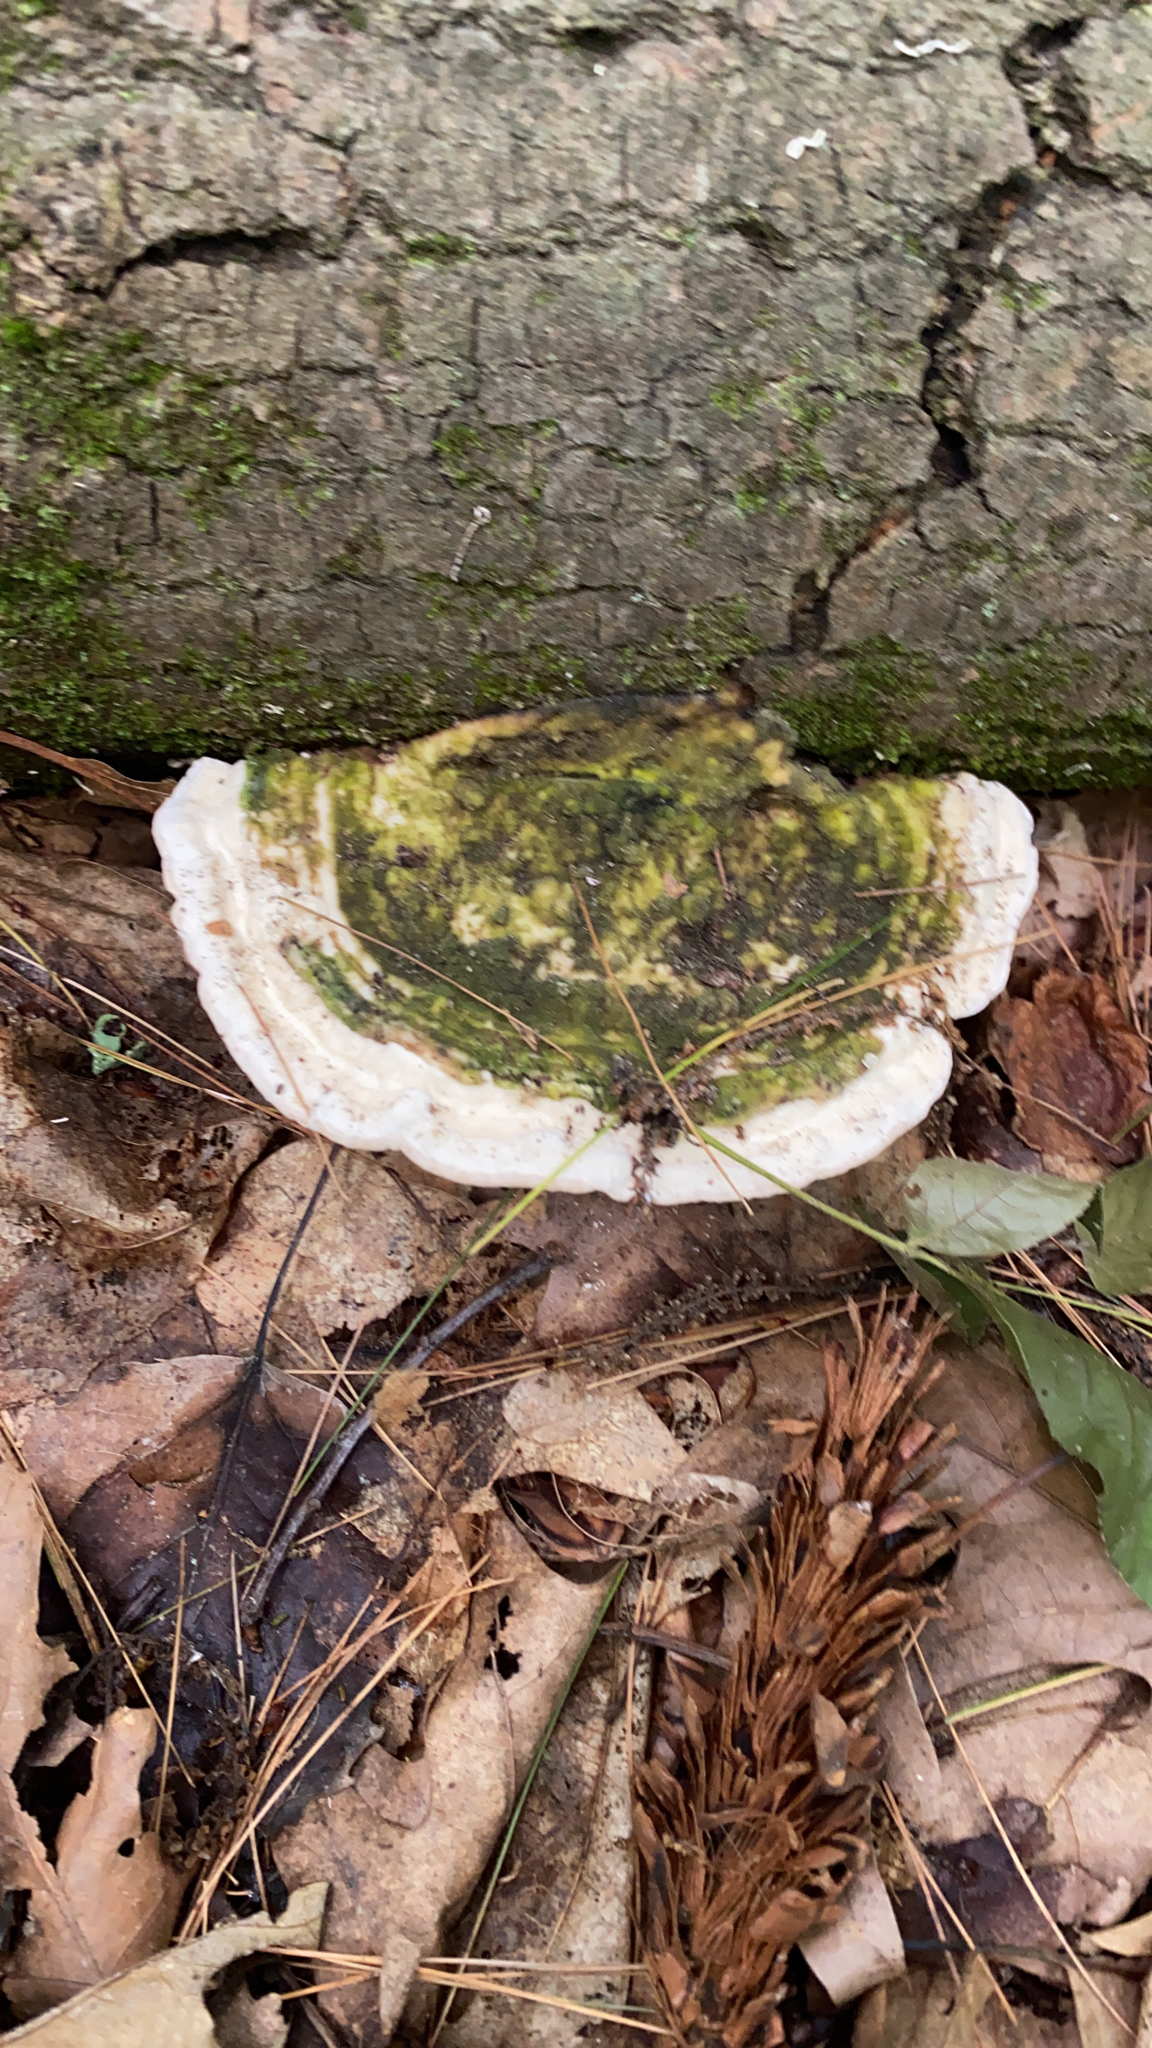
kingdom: Fungi
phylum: Basidiomycota
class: Agaricomycetes
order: Polyporales
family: Polyporaceae
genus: Trametes
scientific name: Trametes gibbosa
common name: Lumpy bracket
